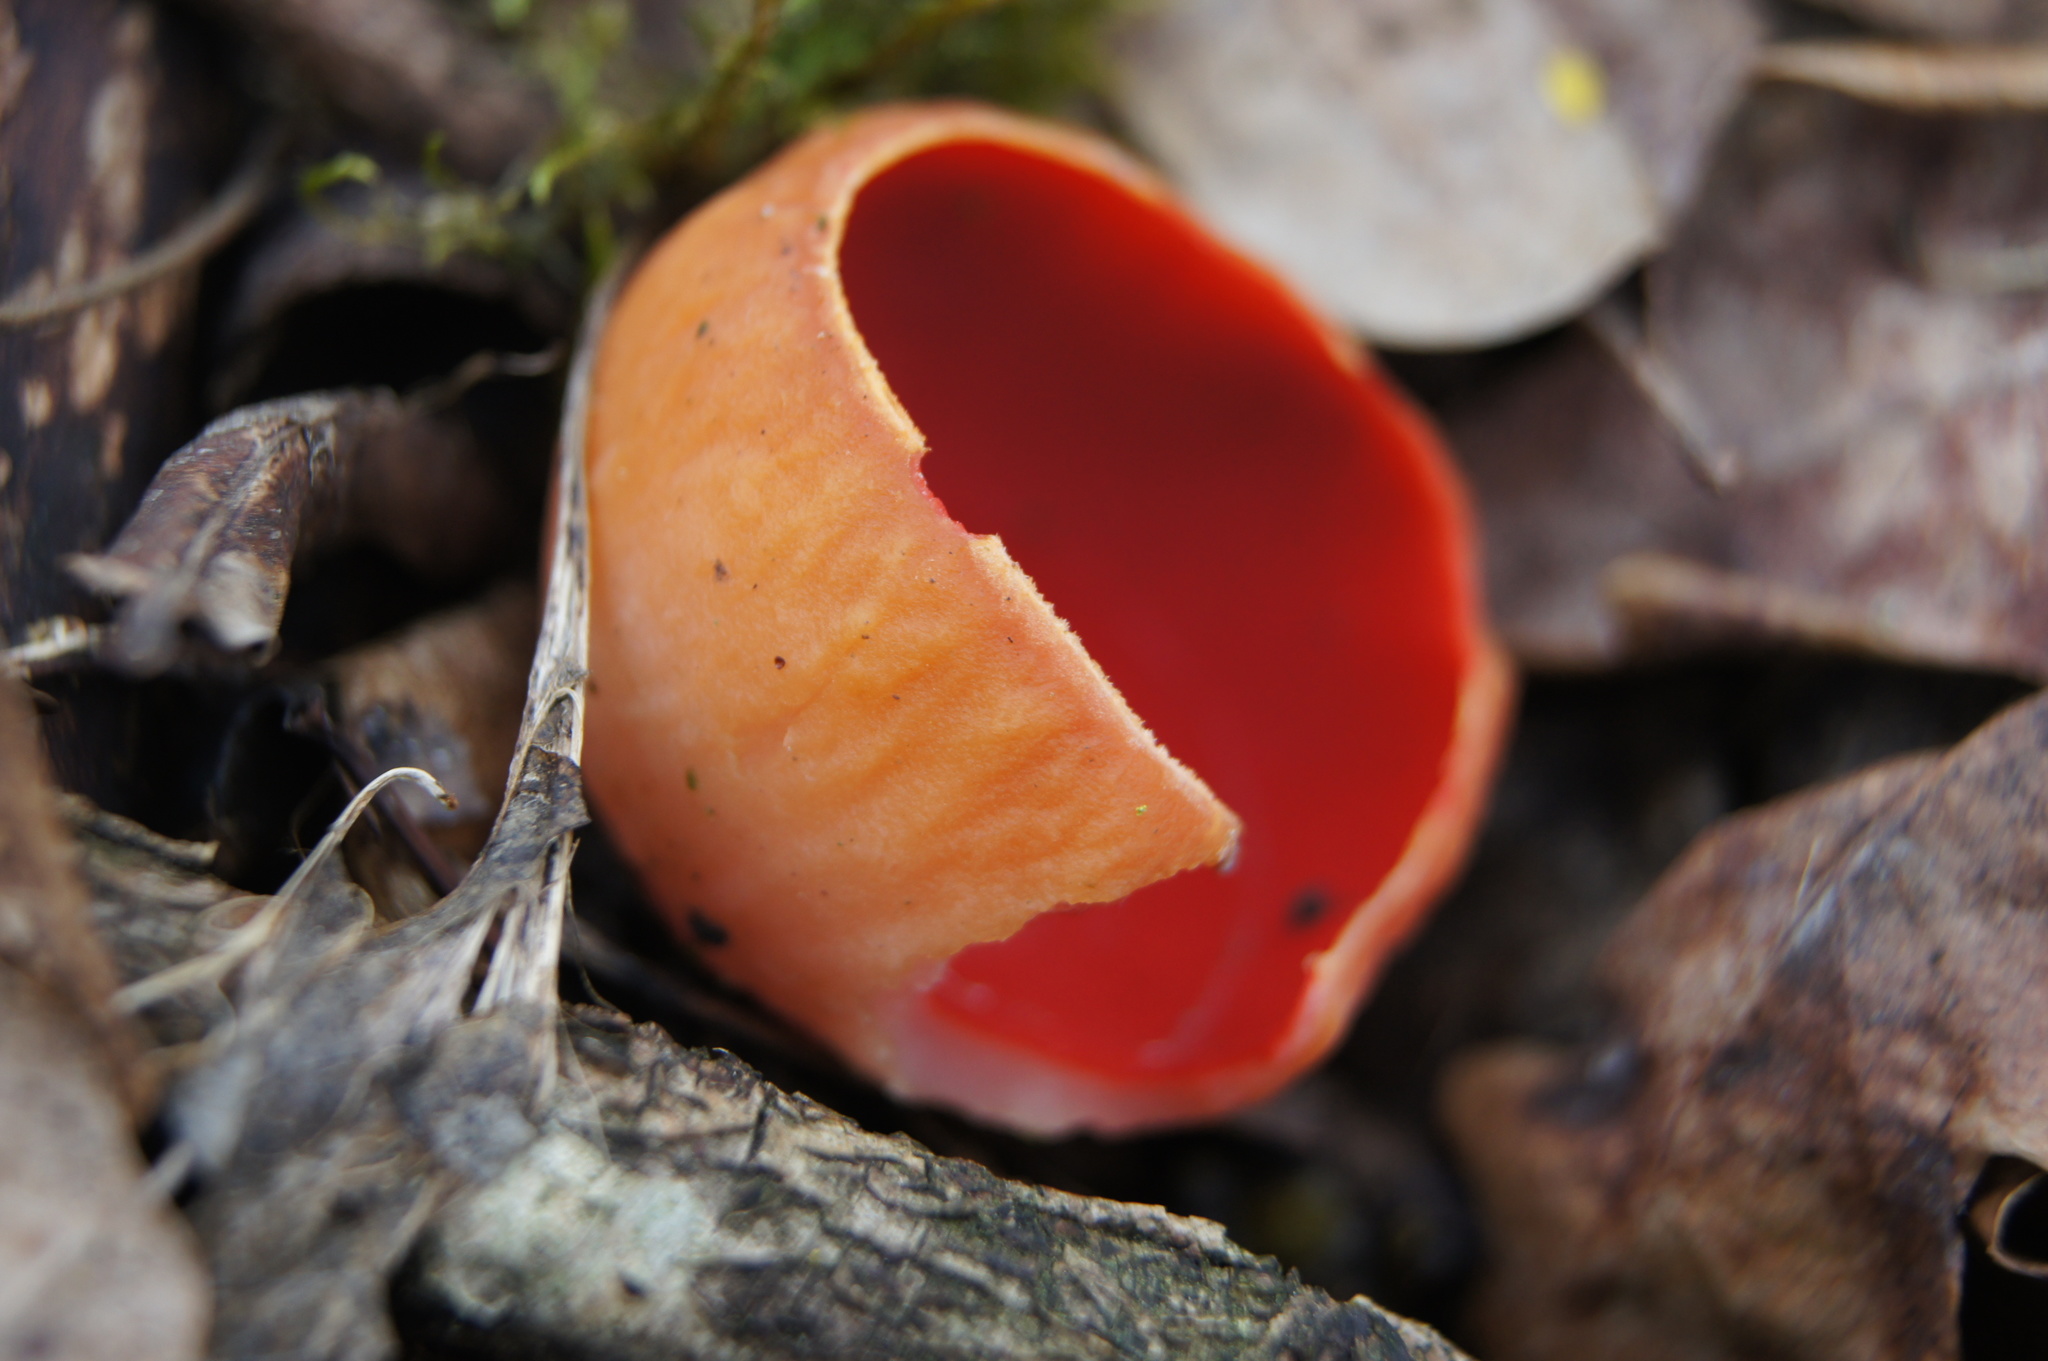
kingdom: Fungi
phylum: Ascomycota
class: Pezizomycetes
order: Pezizales
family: Sarcoscyphaceae
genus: Sarcoscypha
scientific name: Sarcoscypha
